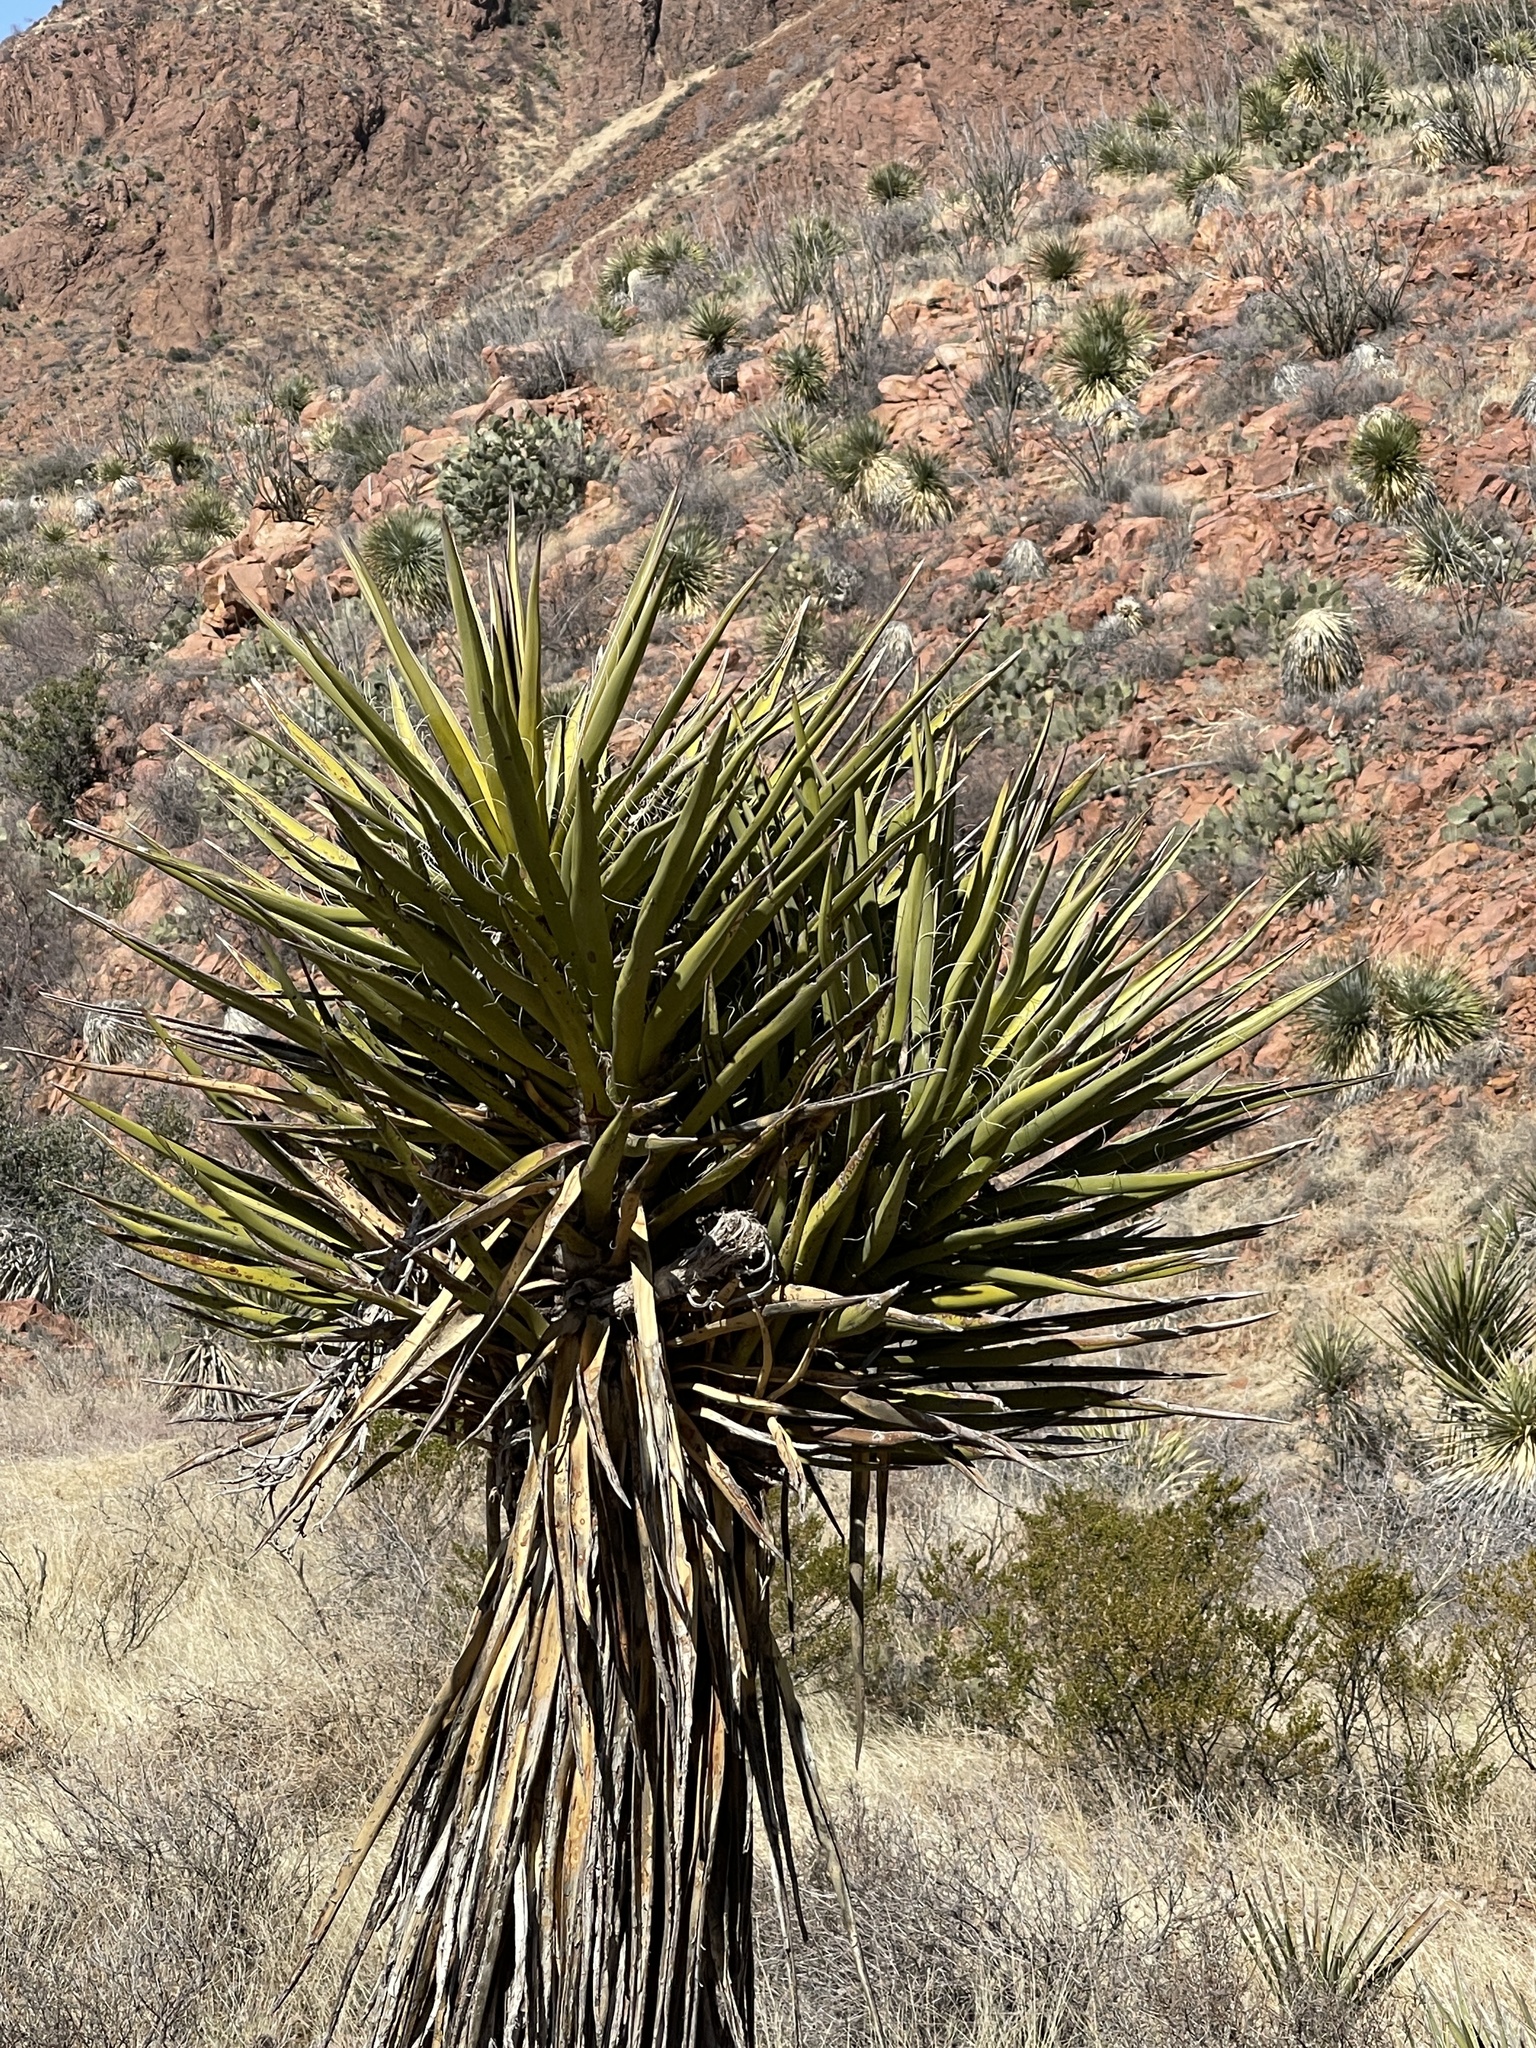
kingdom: Plantae
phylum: Tracheophyta
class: Liliopsida
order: Asparagales
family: Asparagaceae
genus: Yucca
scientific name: Yucca treculiana
